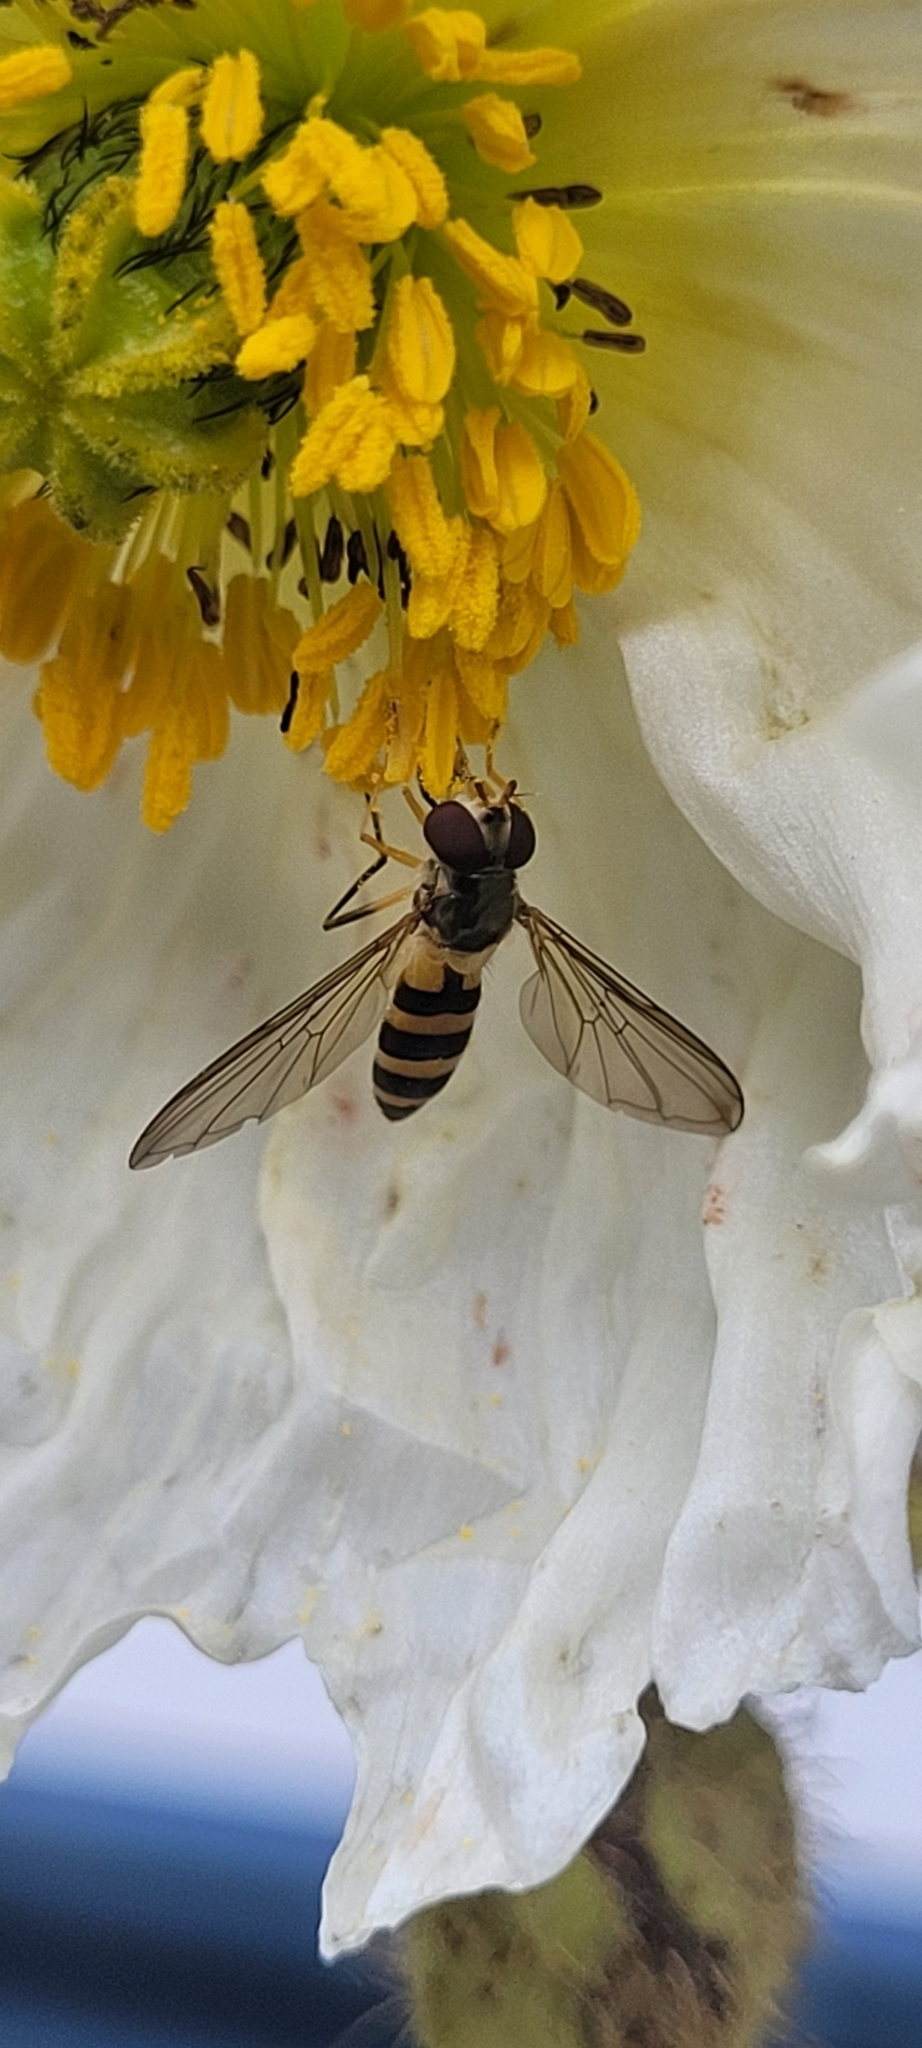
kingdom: Animalia
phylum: Arthropoda
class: Insecta
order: Diptera
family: Syrphidae
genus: Meliscaeva
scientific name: Meliscaeva cinctella
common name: American thintail fly
